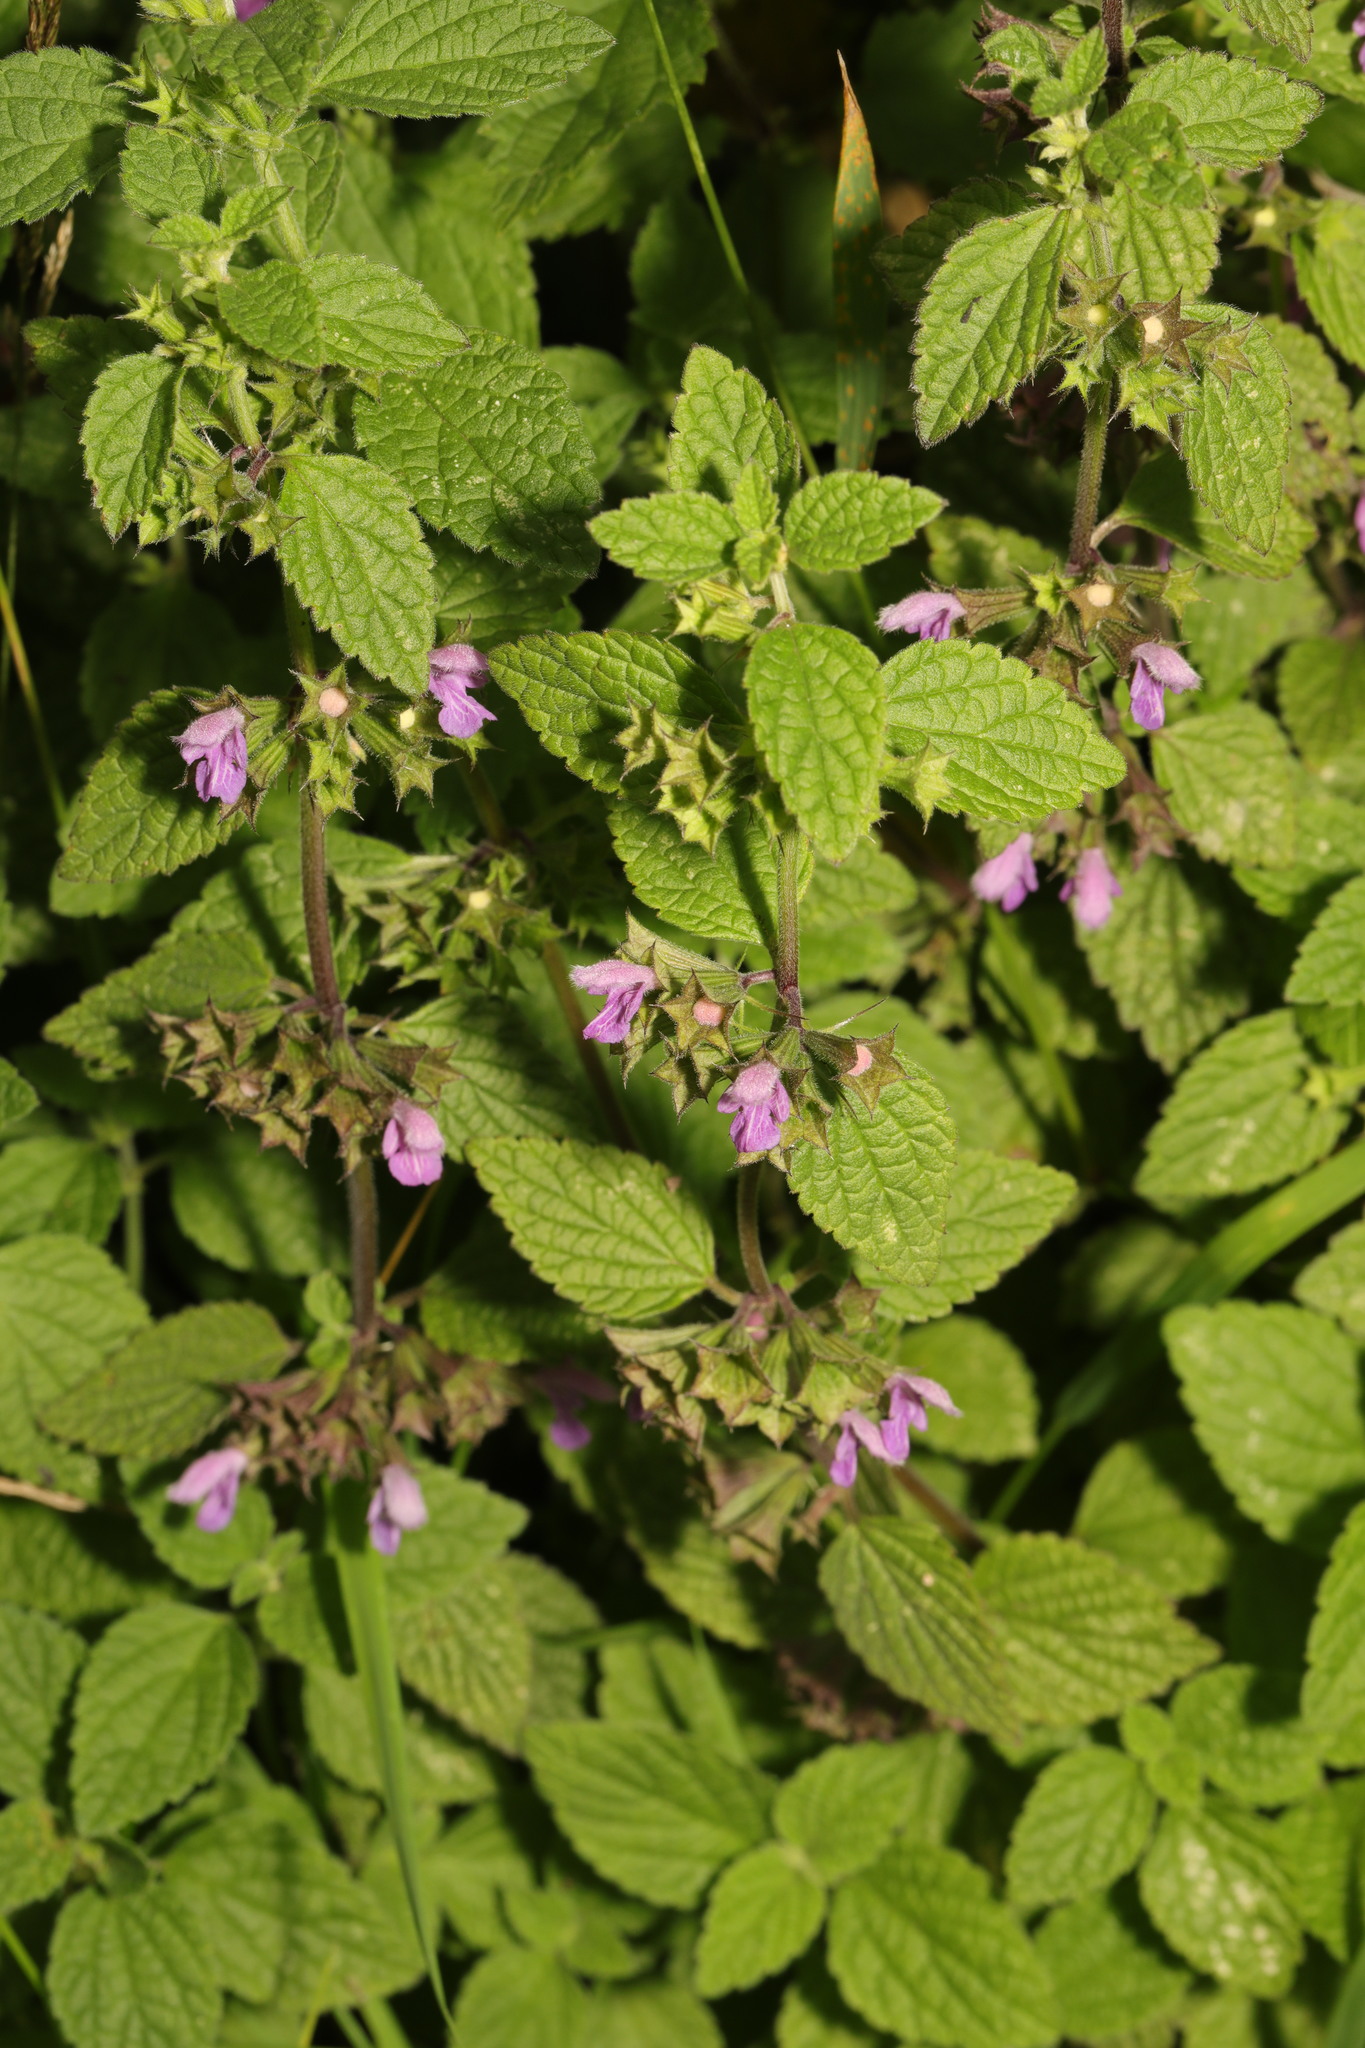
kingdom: Plantae
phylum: Tracheophyta
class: Magnoliopsida
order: Lamiales
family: Lamiaceae
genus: Ballota
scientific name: Ballota nigra
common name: Black horehound
